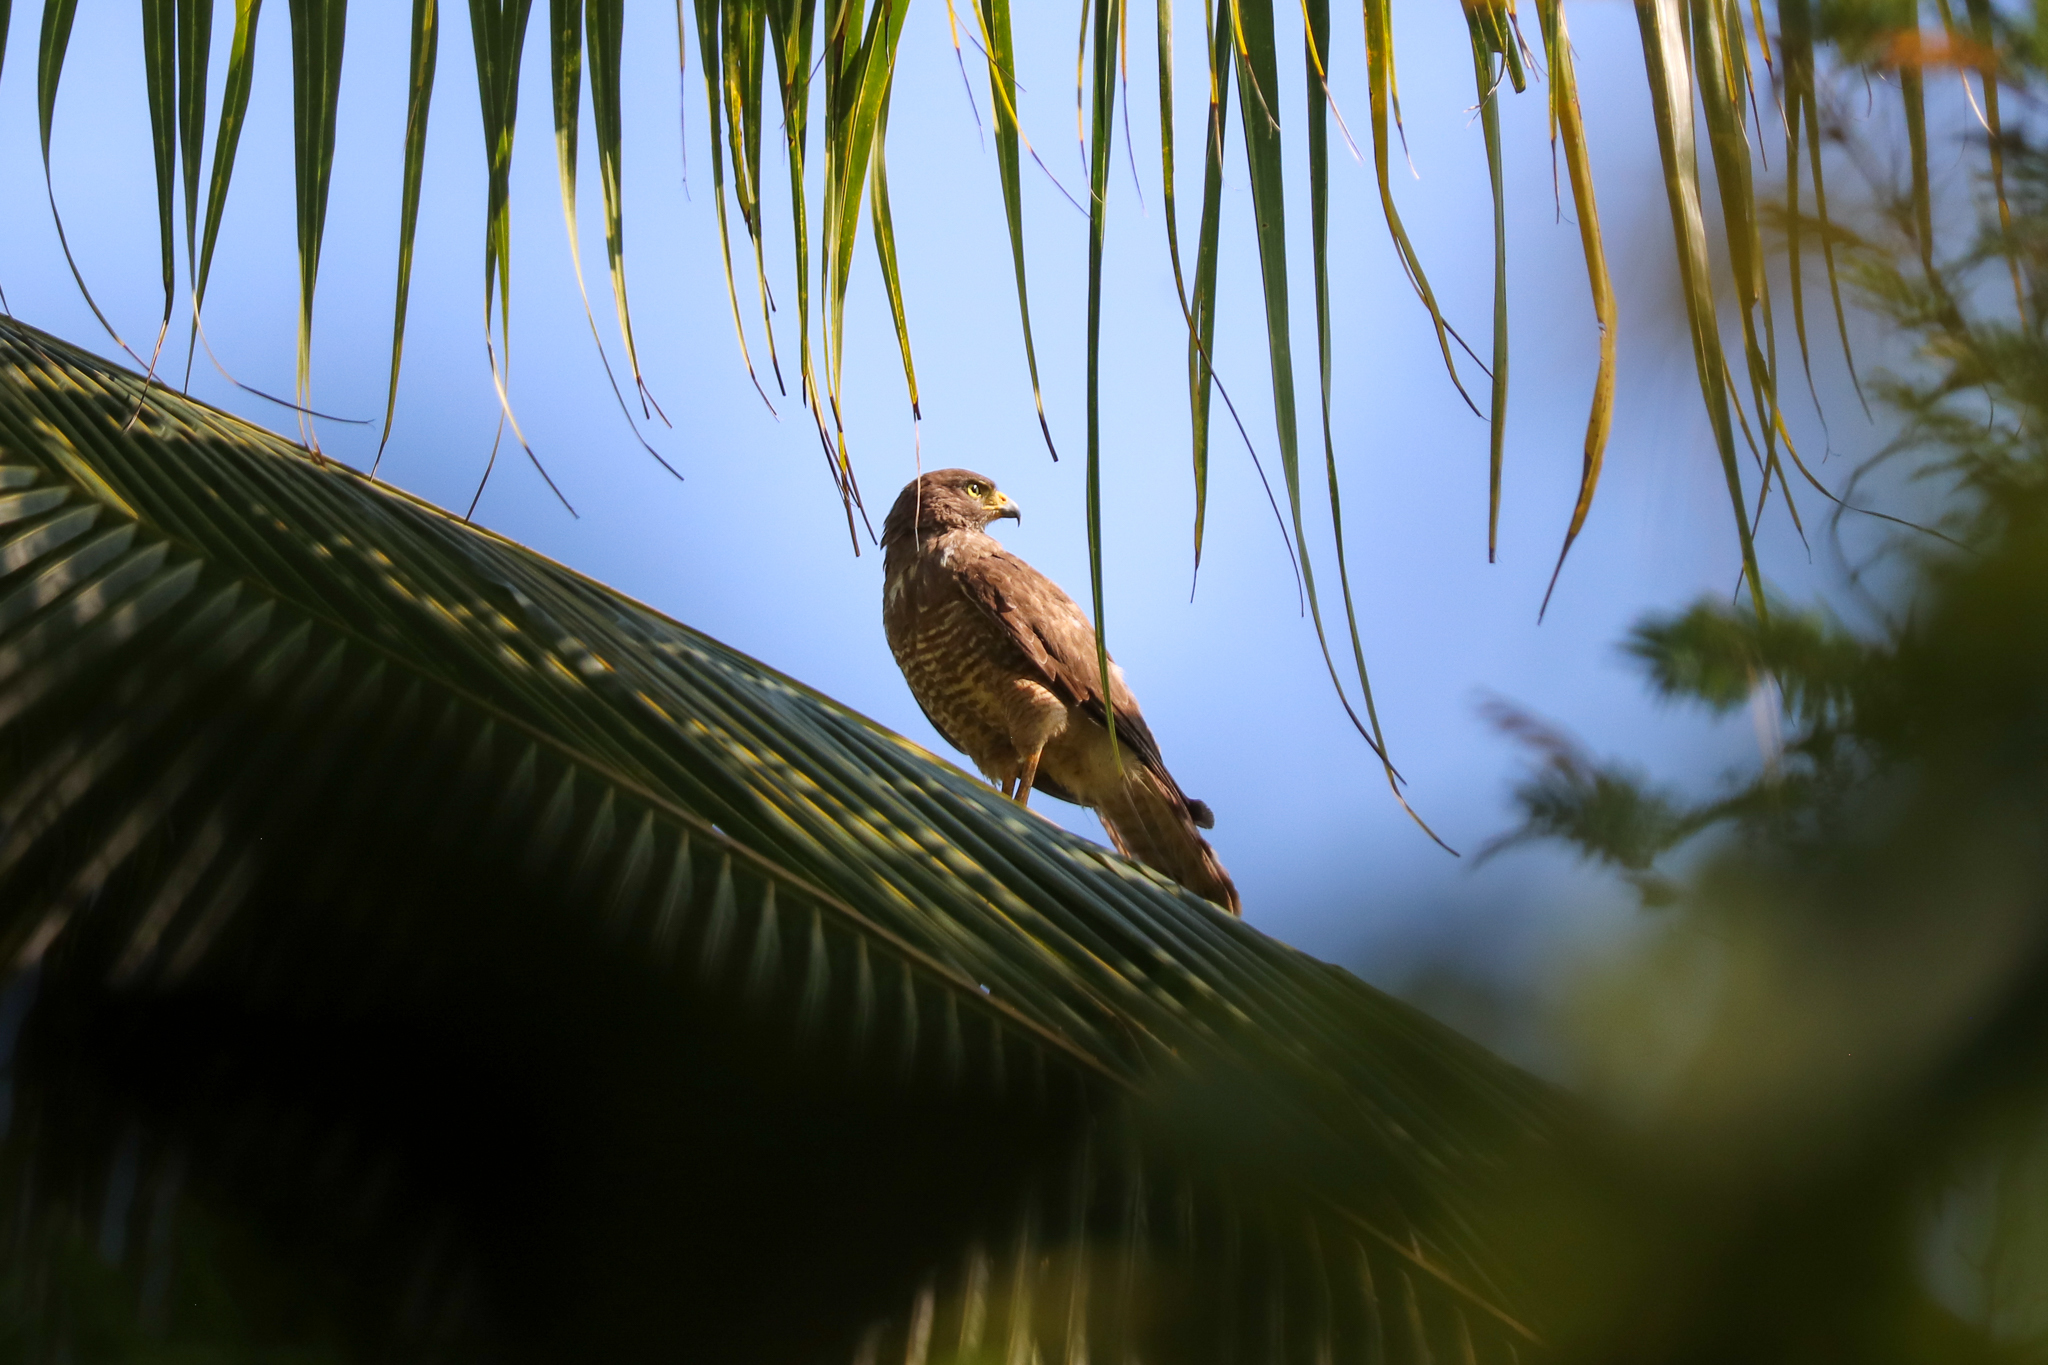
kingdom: Animalia
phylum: Chordata
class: Aves
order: Accipitriformes
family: Accipitridae
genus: Rupornis
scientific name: Rupornis magnirostris
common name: Roadside hawk
